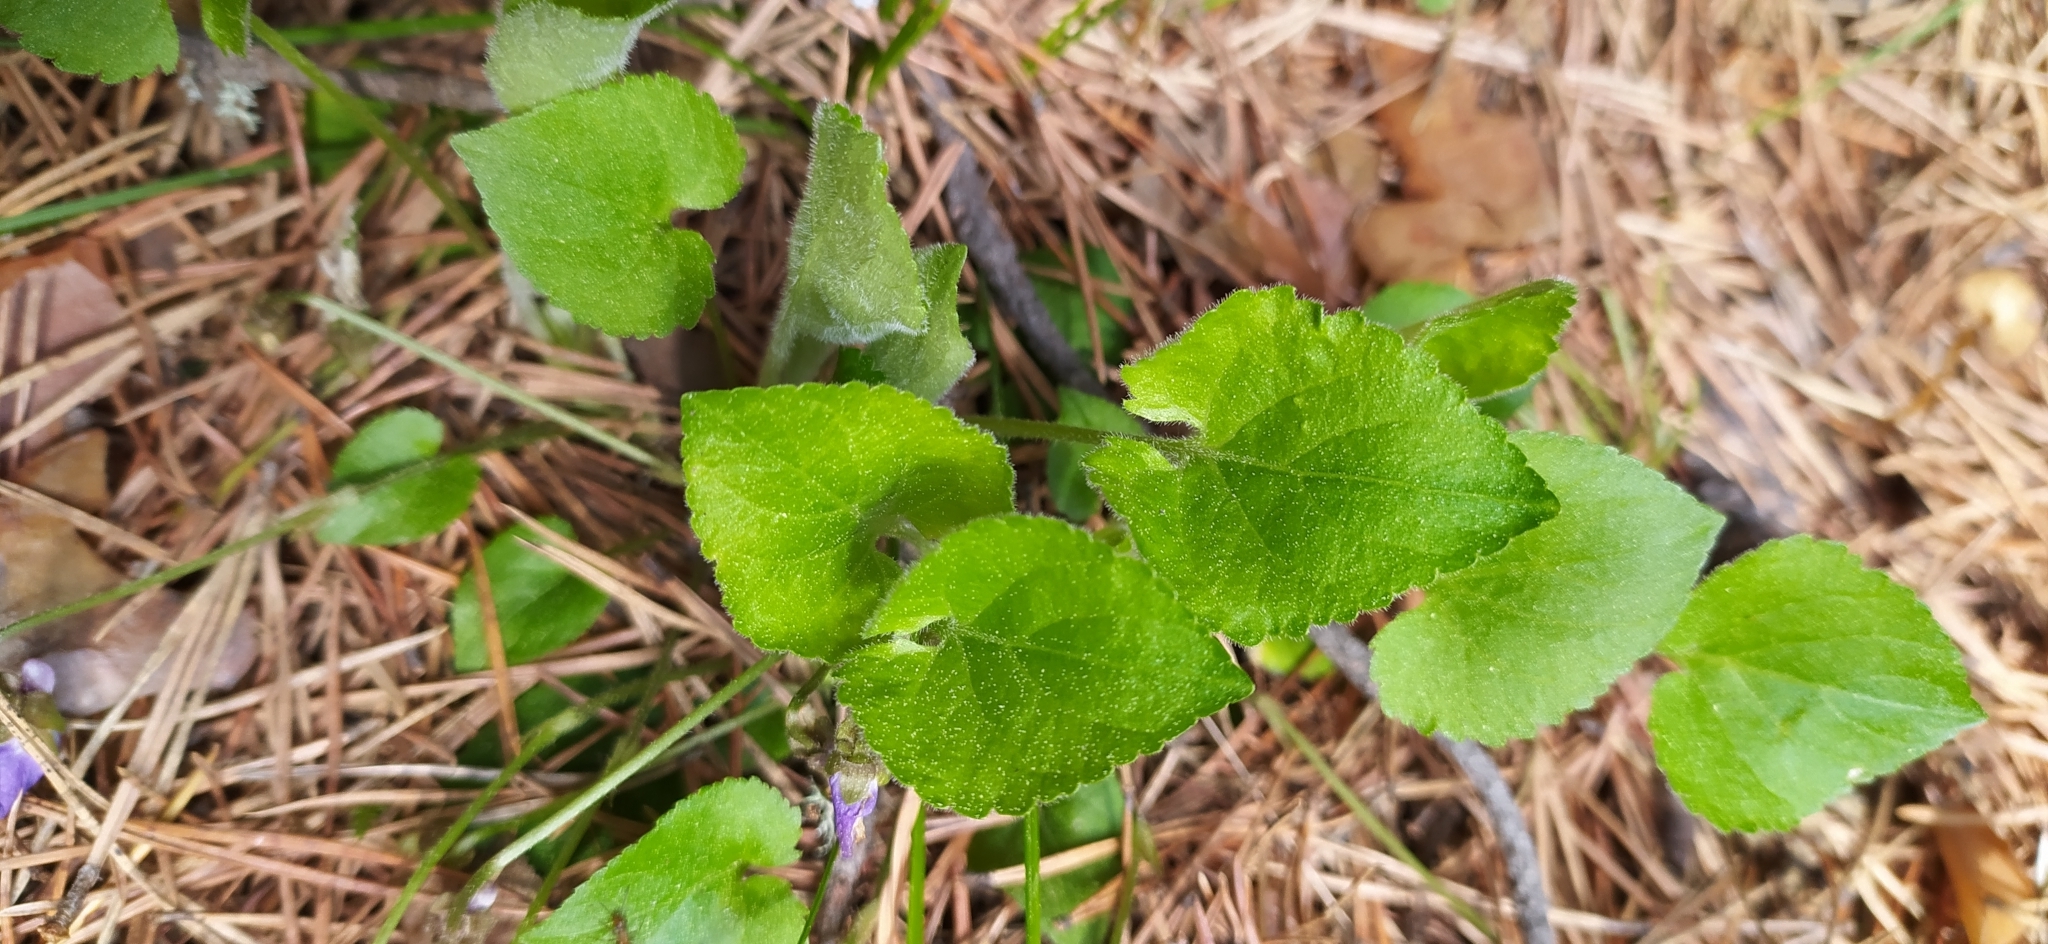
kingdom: Plantae
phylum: Tracheophyta
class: Magnoliopsida
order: Malpighiales
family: Violaceae
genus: Viola
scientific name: Viola collina
